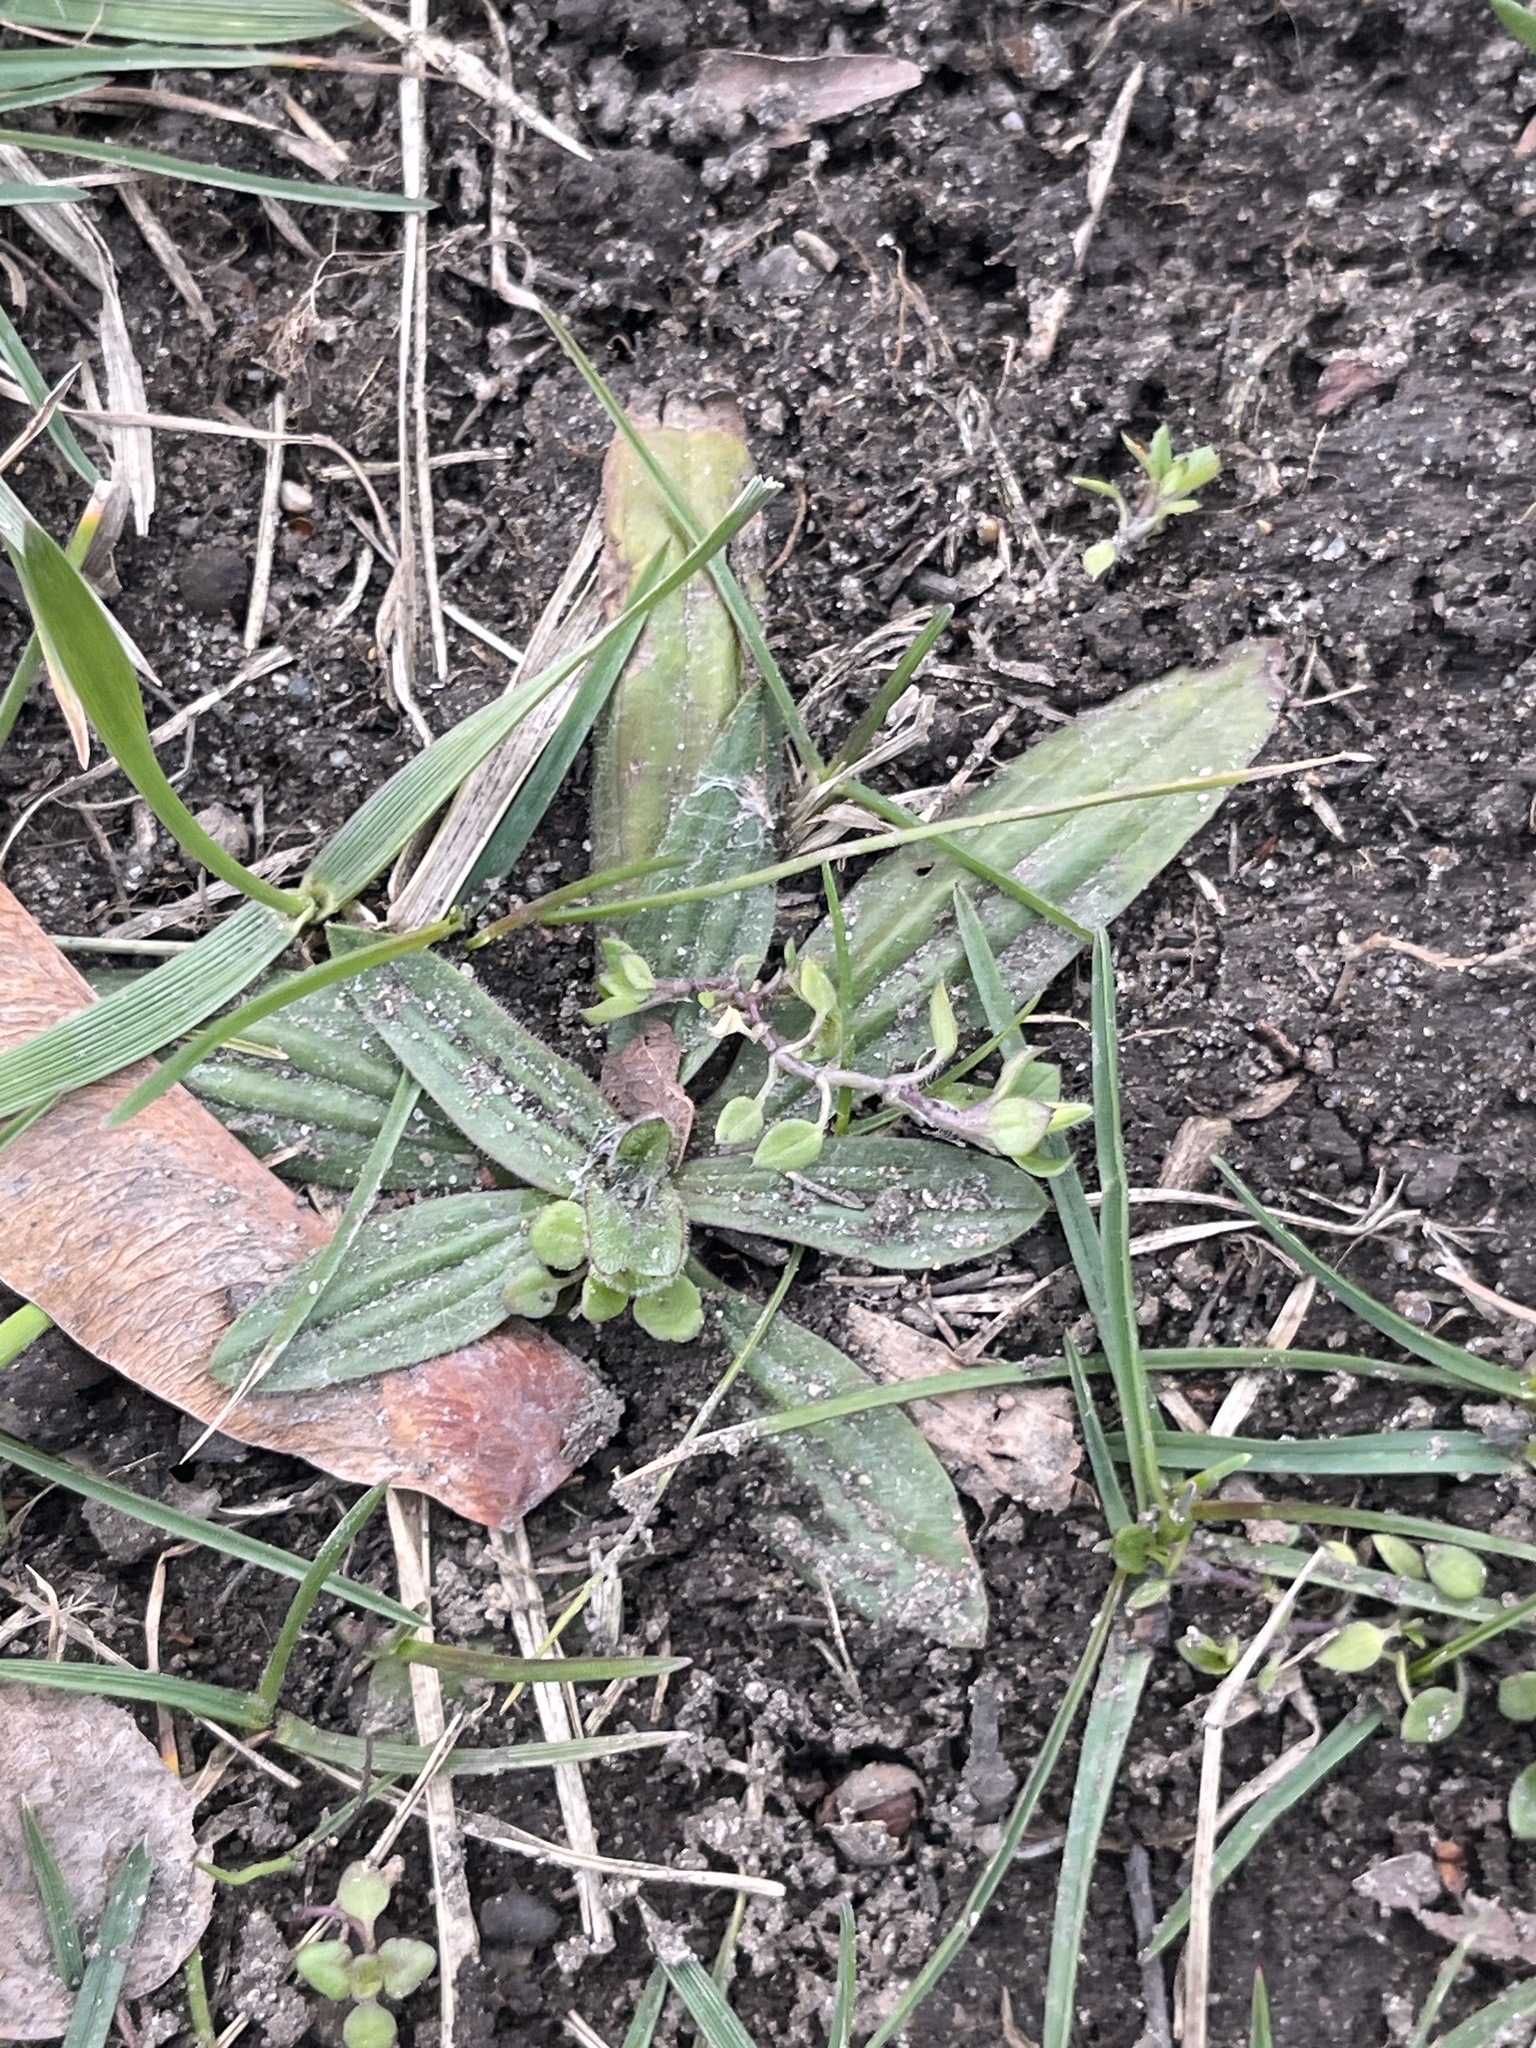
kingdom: Plantae
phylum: Tracheophyta
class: Magnoliopsida
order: Lamiales
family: Plantaginaceae
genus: Plantago
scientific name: Plantago lanceolata
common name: Ribwort plantain
